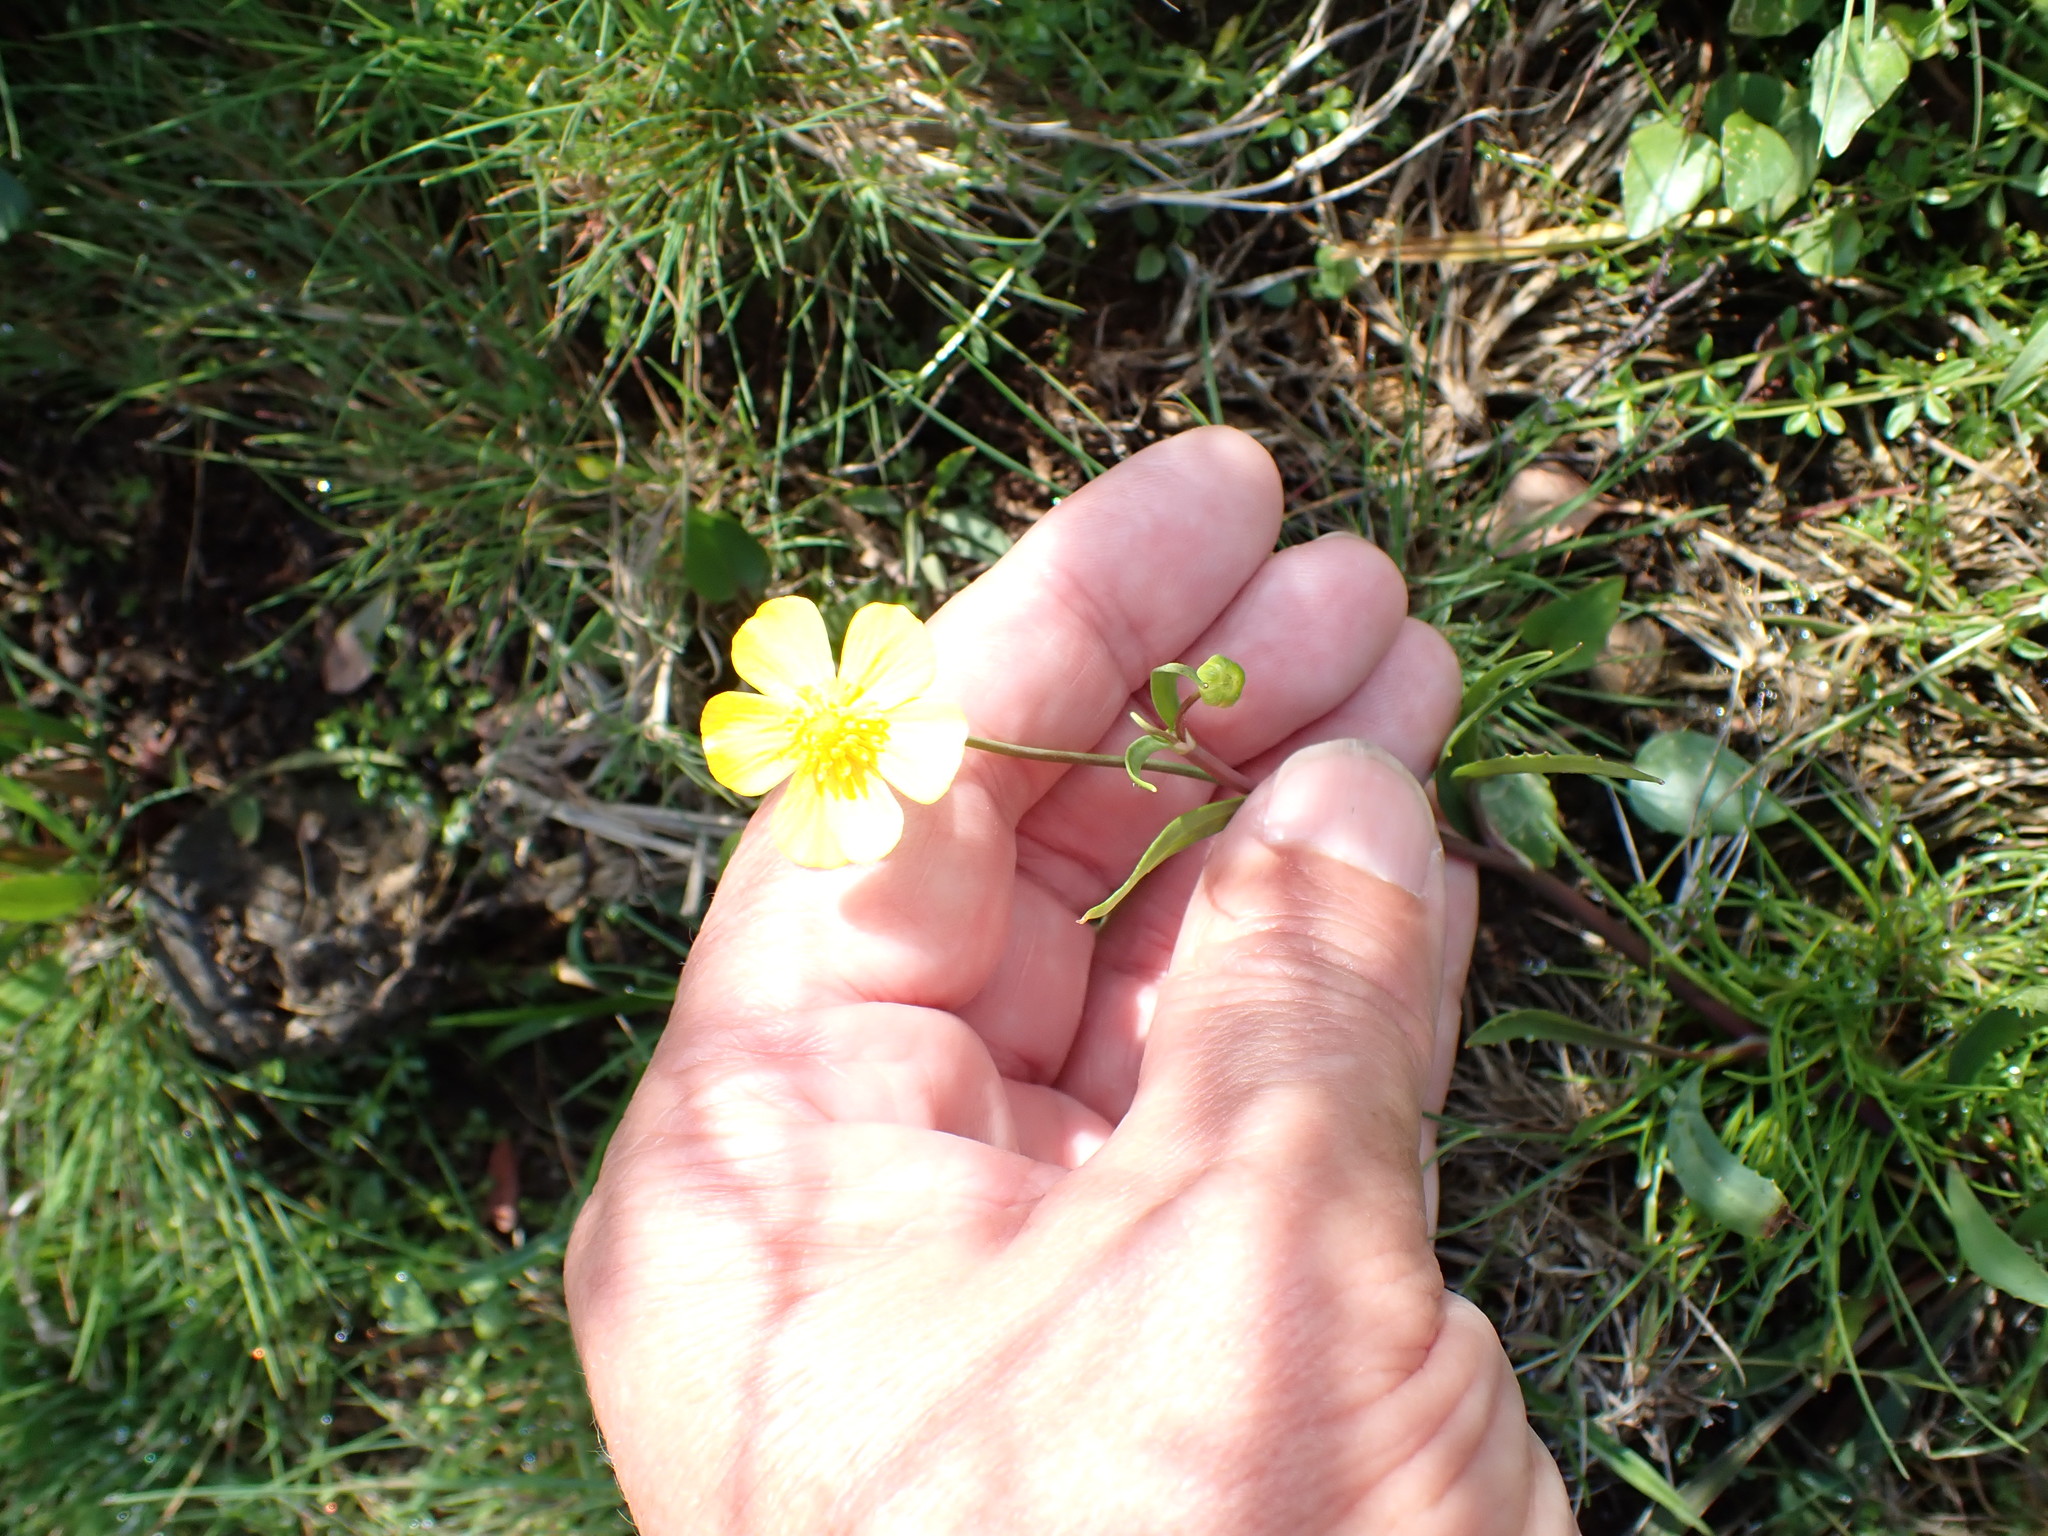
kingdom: Plantae
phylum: Tracheophyta
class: Magnoliopsida
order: Ranunculales
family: Ranunculaceae
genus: Ranunculus
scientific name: Ranunculus flammula
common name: Lesser spearwort
